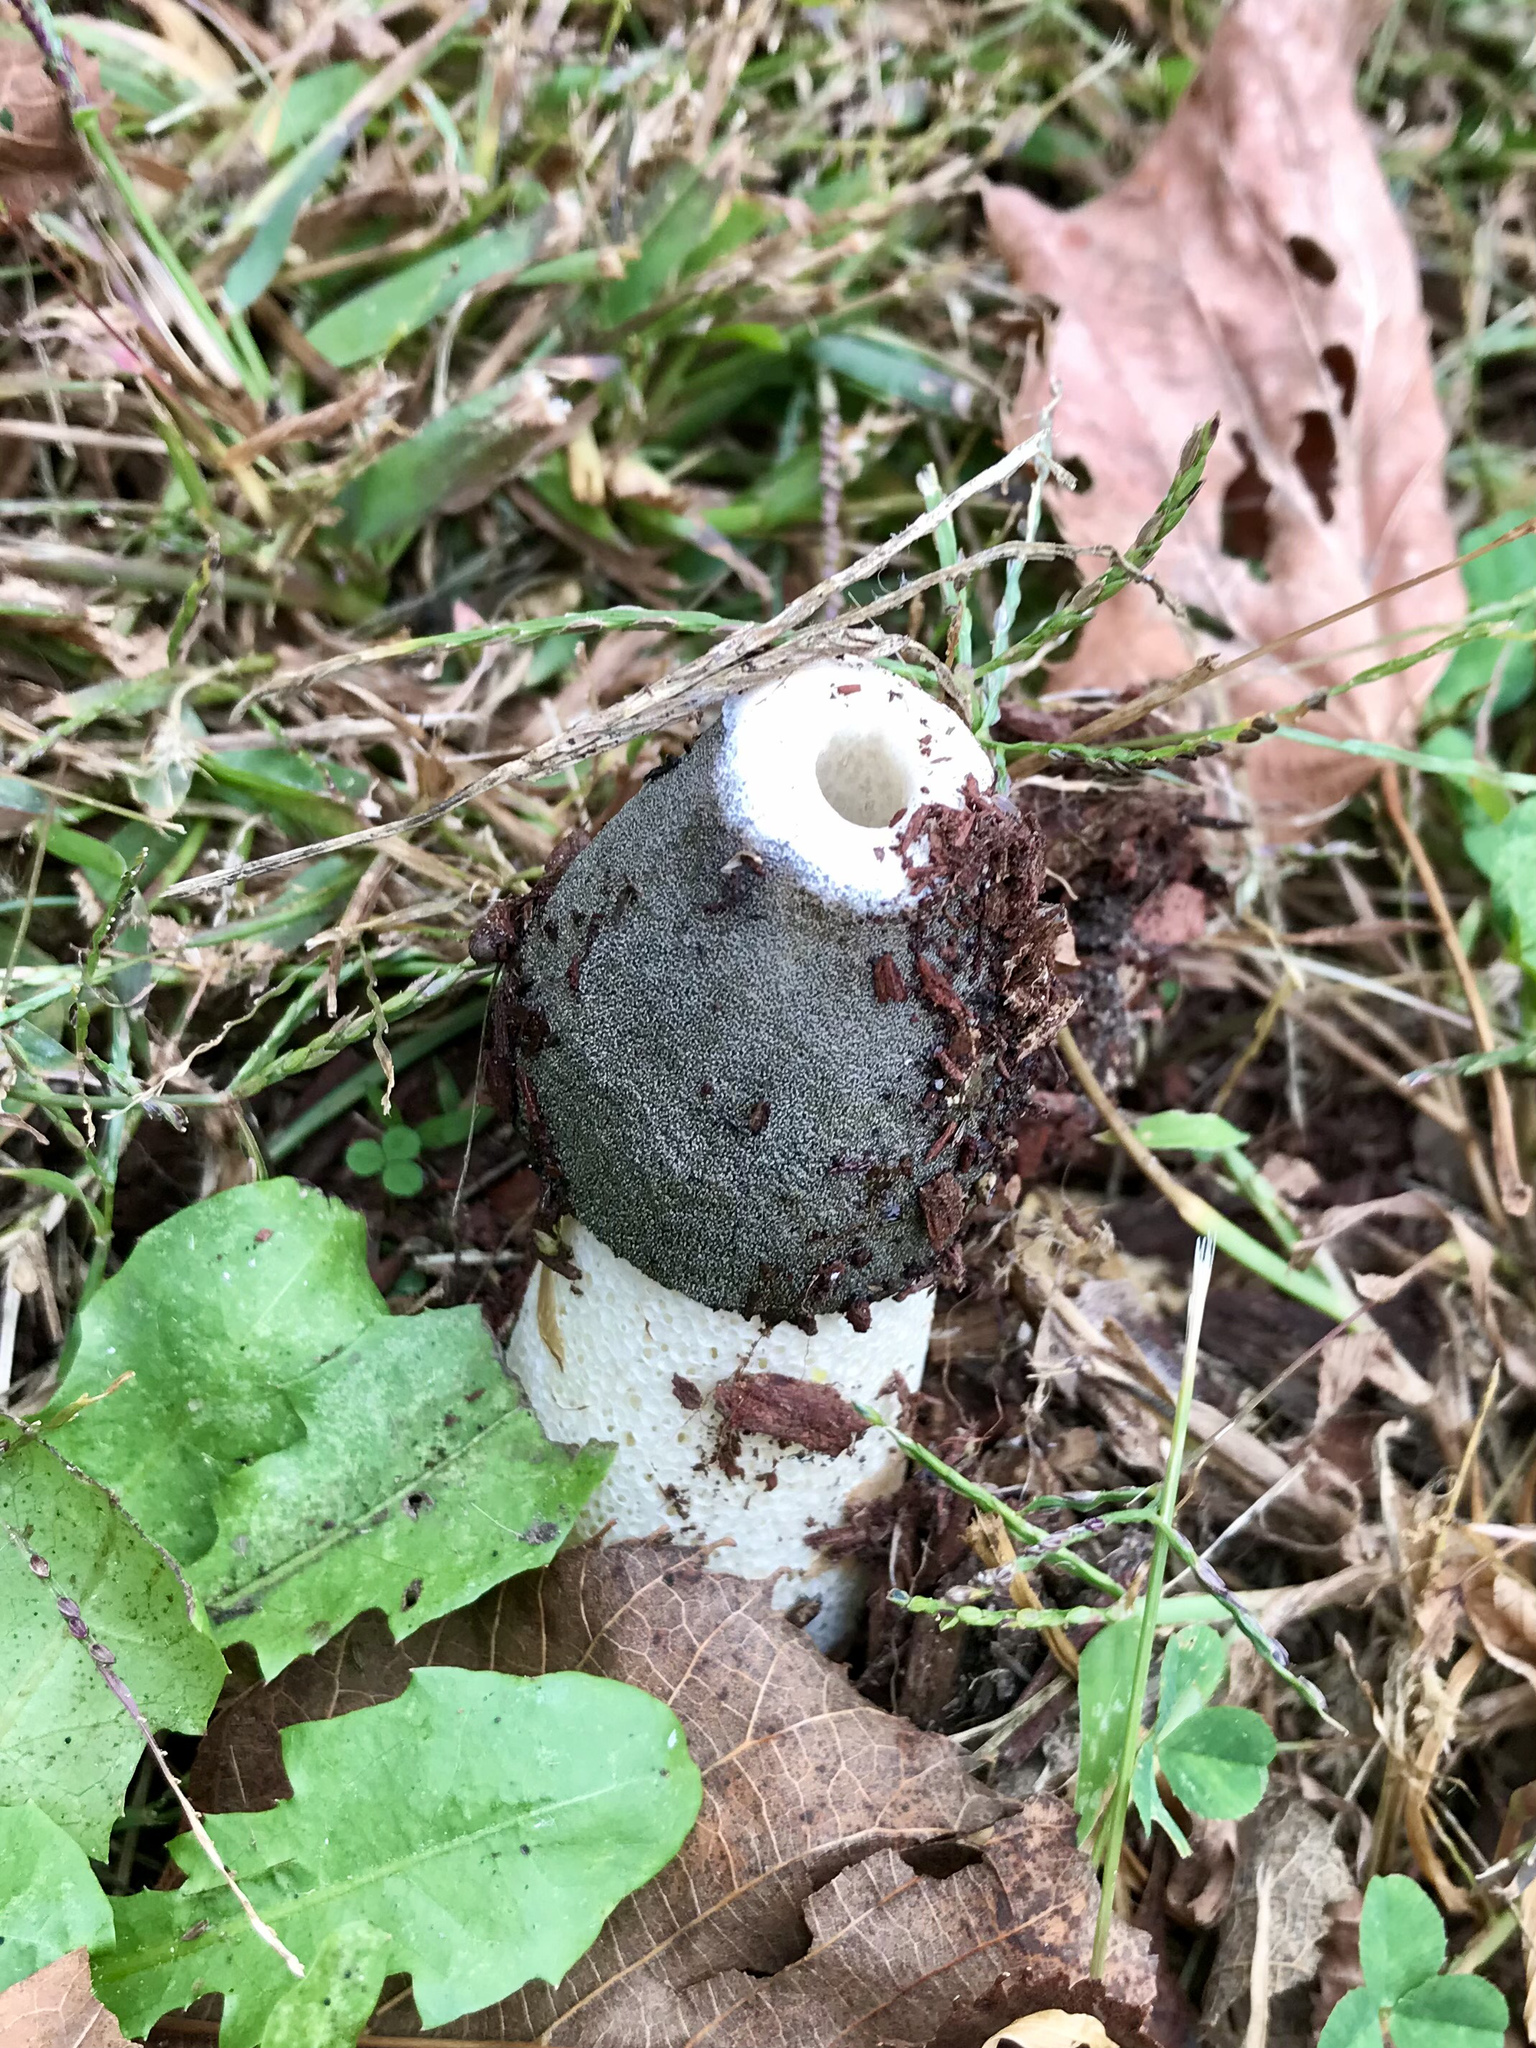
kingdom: Fungi
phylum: Basidiomycota
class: Agaricomycetes
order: Phallales
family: Phallaceae
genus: Phallus
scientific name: Phallus ravenelii
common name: Ravenel's stinkhorn
